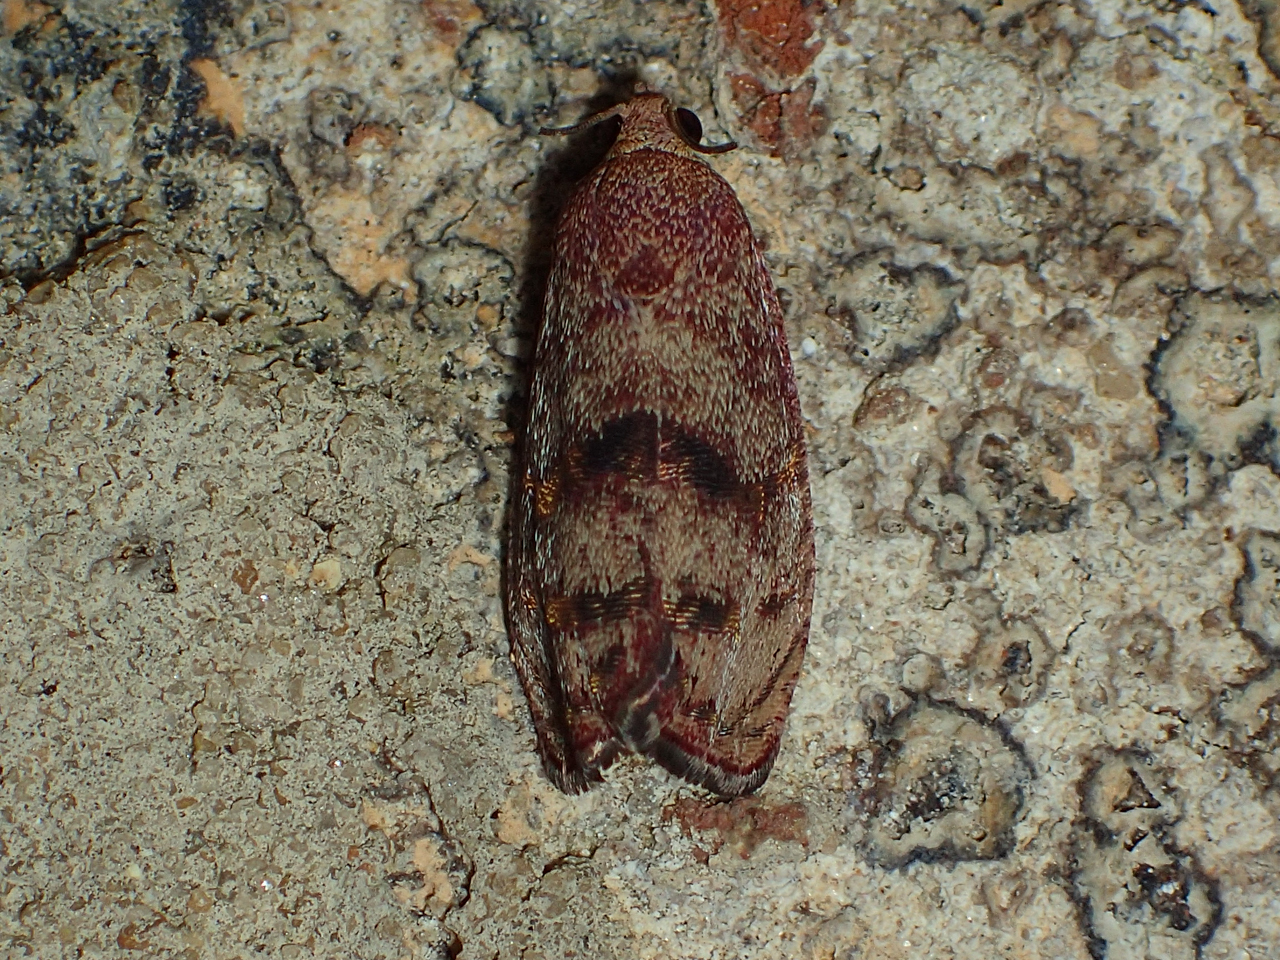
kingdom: Animalia
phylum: Arthropoda
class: Insecta
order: Lepidoptera
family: Tortricidae
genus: Cydia
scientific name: Cydia latiferreana
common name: Filbertworm moth
